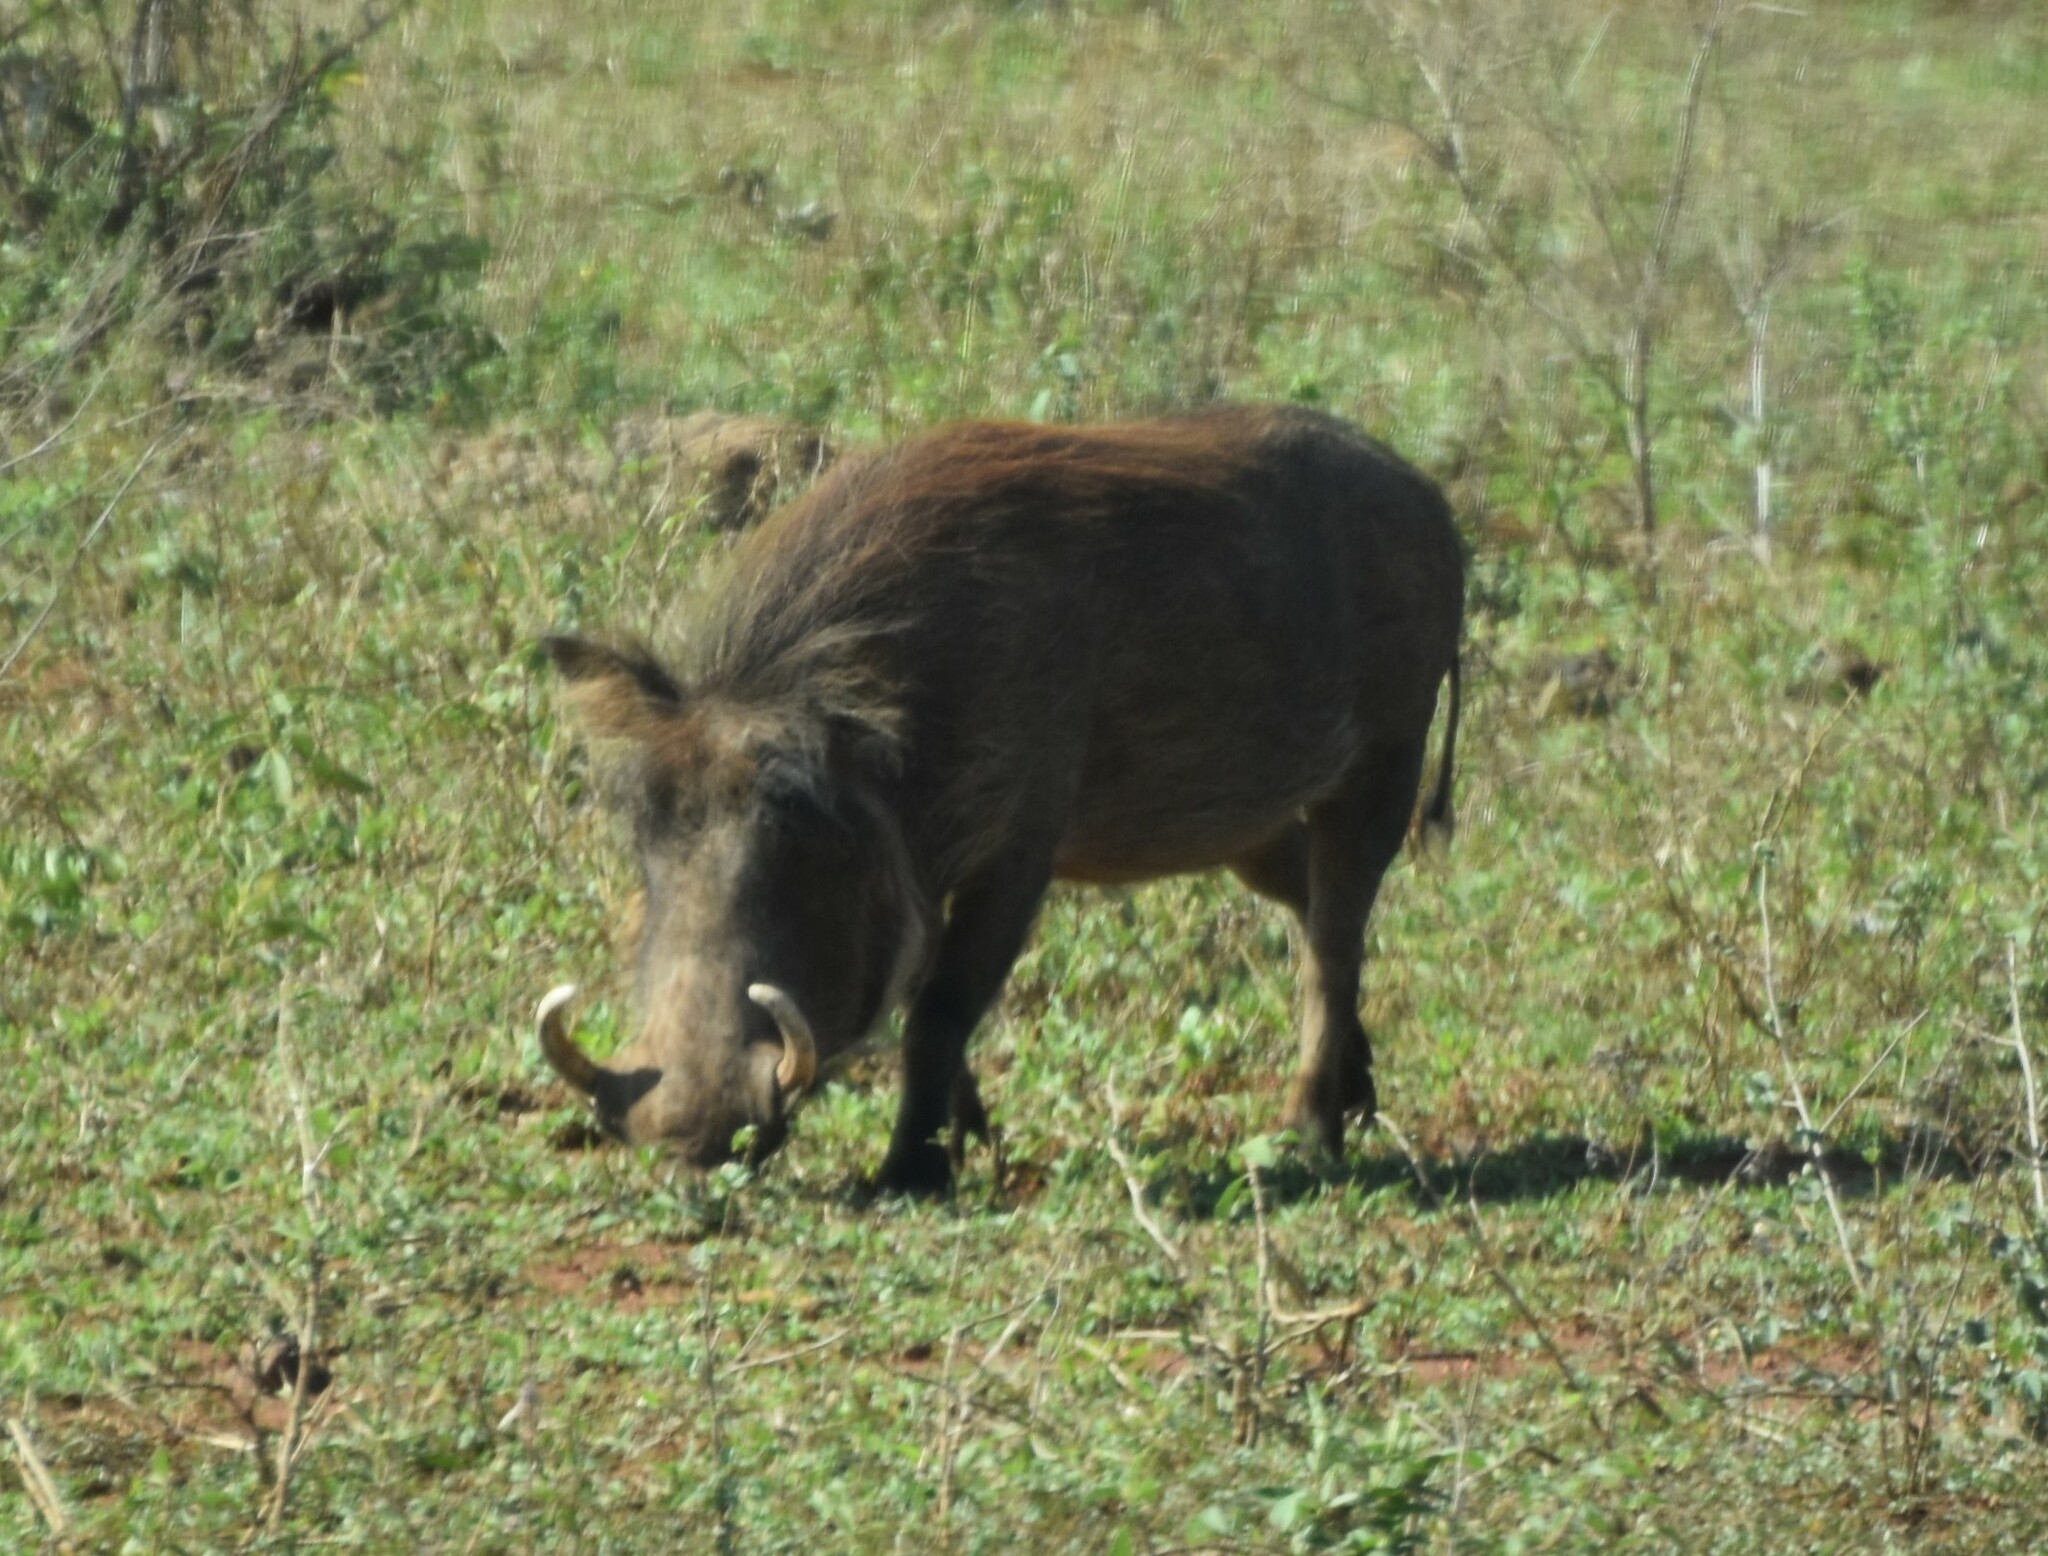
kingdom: Animalia
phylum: Chordata
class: Mammalia
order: Artiodactyla
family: Suidae
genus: Phacochoerus
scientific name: Phacochoerus africanus
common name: Common warthog
